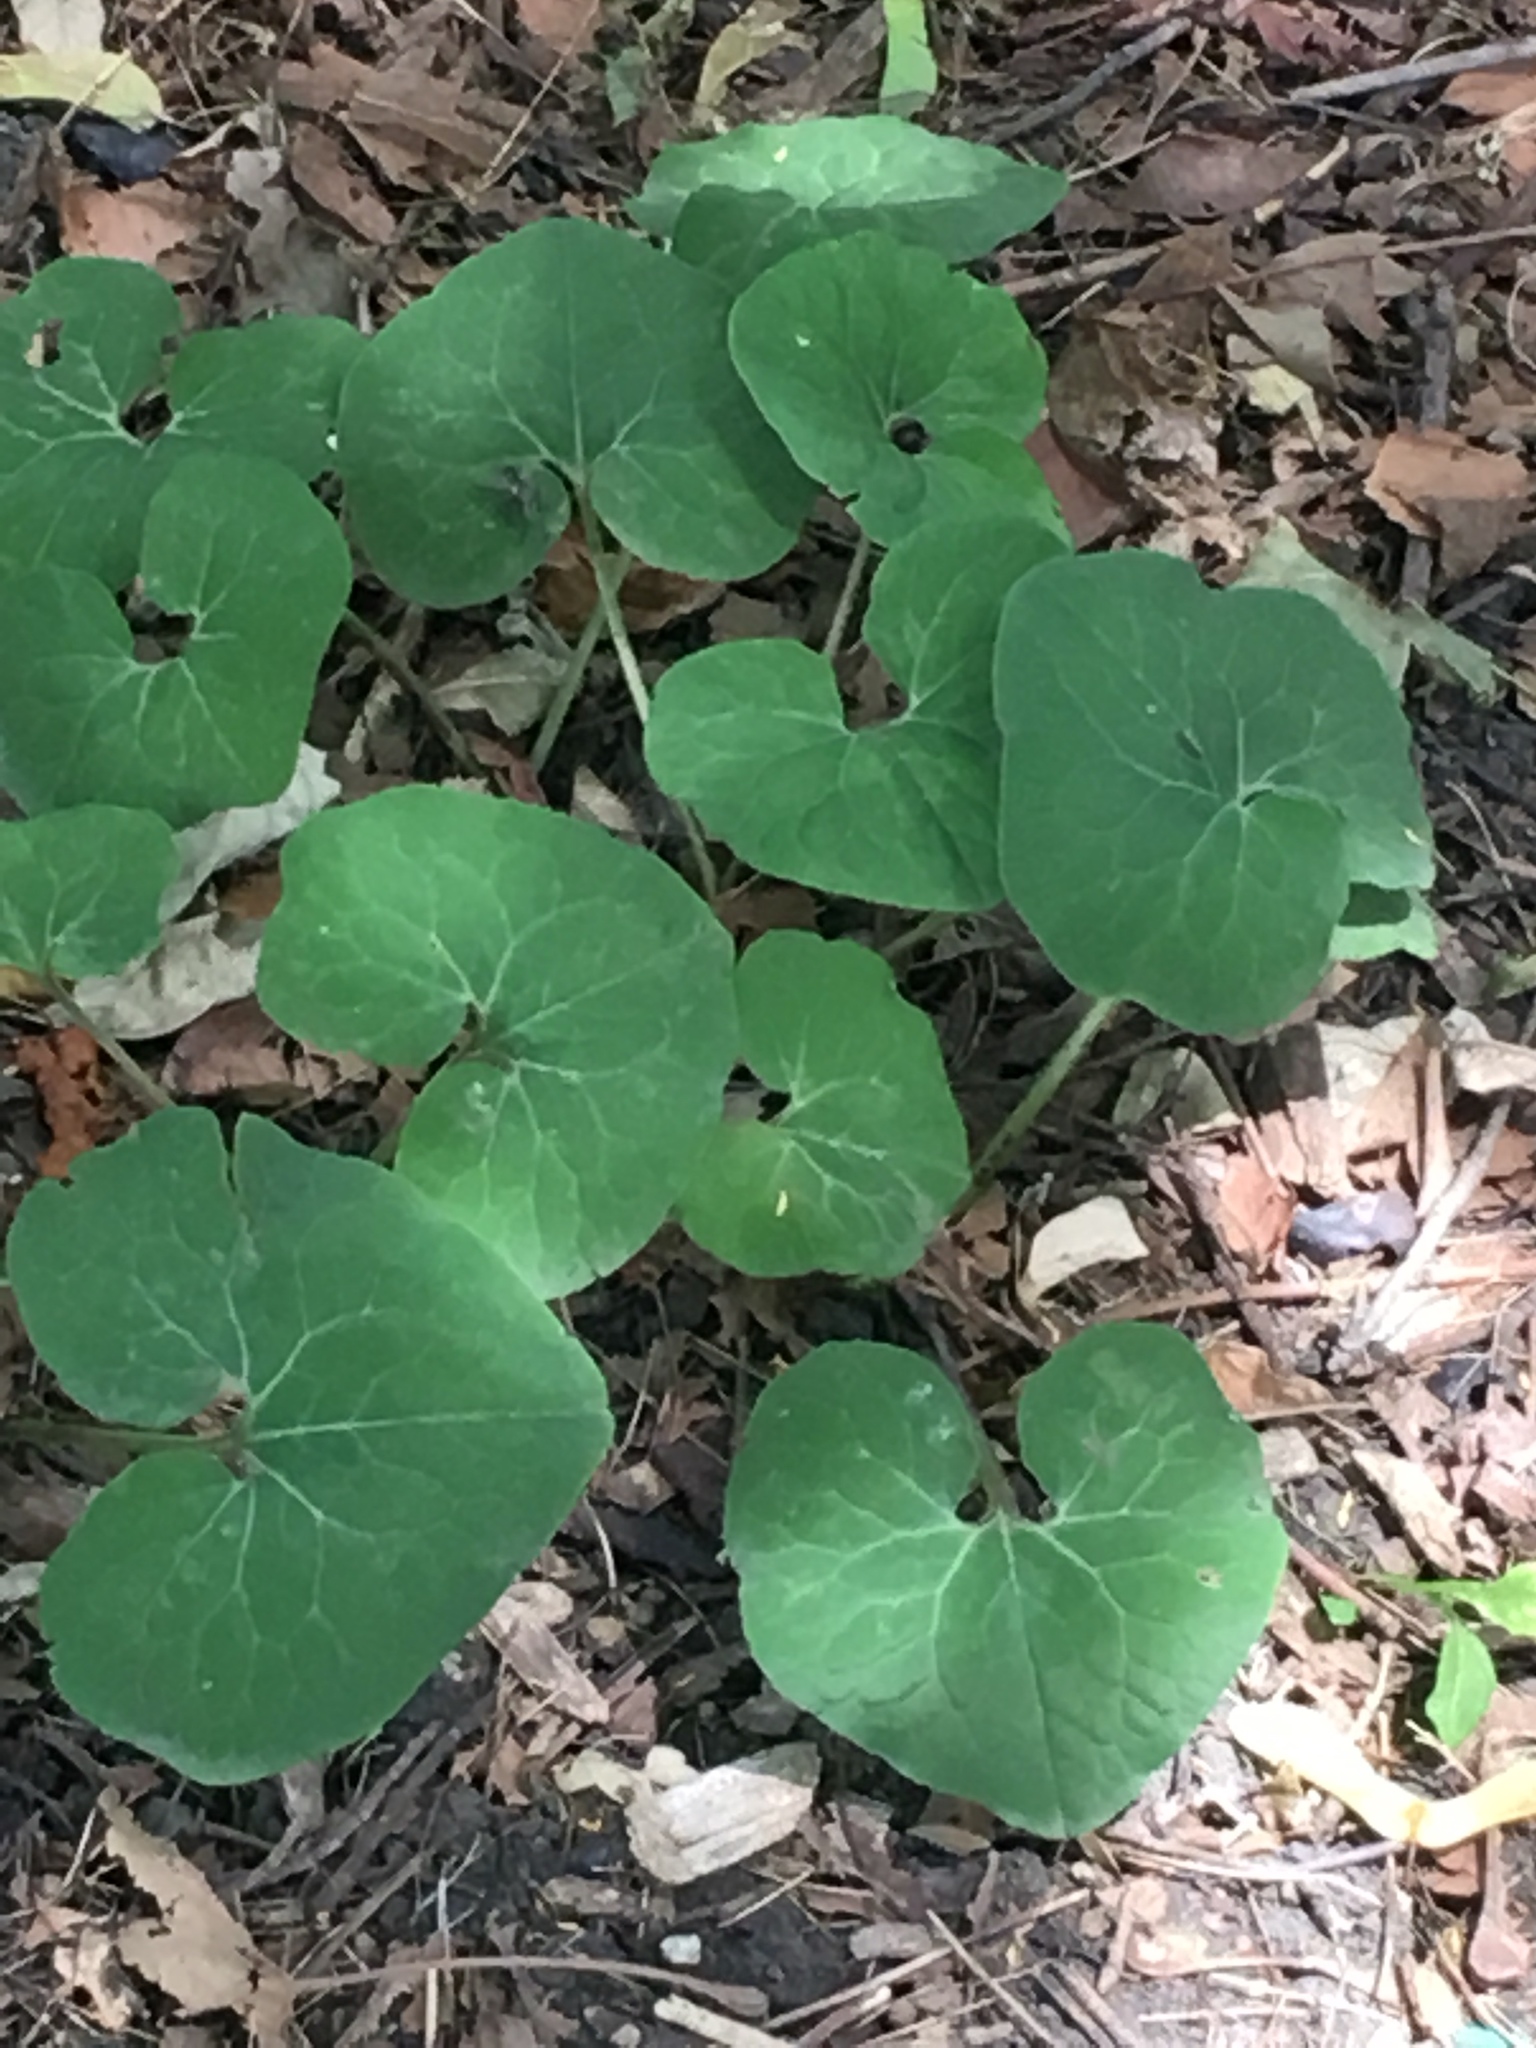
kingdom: Plantae
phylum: Tracheophyta
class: Magnoliopsida
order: Piperales
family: Aristolochiaceae
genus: Asarum
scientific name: Asarum canadense
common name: Wild ginger
